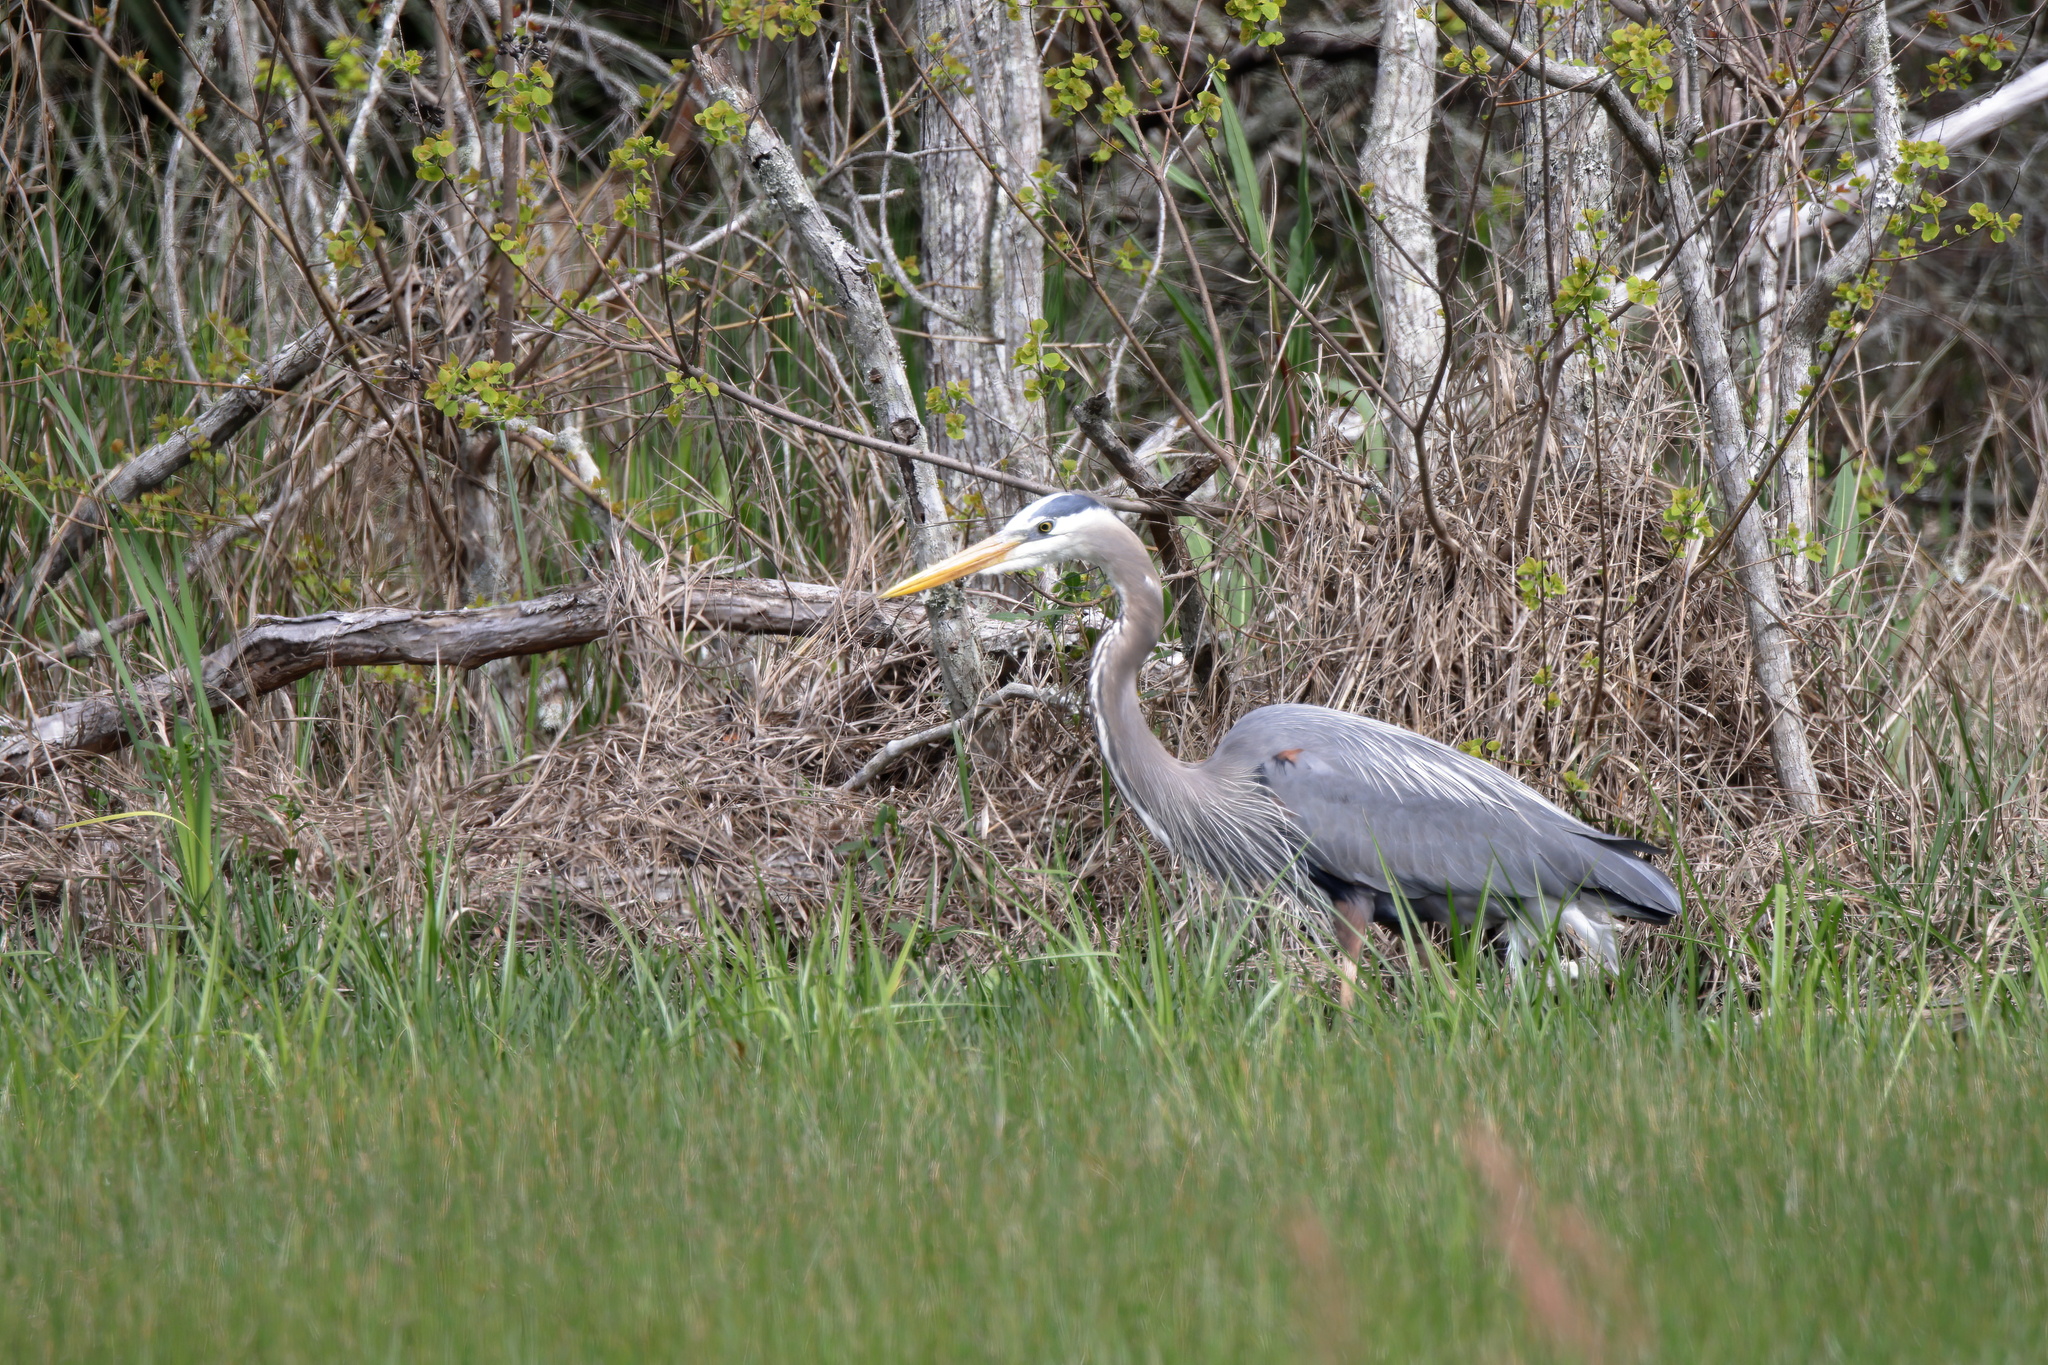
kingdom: Animalia
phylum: Chordata
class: Aves
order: Pelecaniformes
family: Ardeidae
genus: Ardea
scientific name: Ardea herodias
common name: Great blue heron
